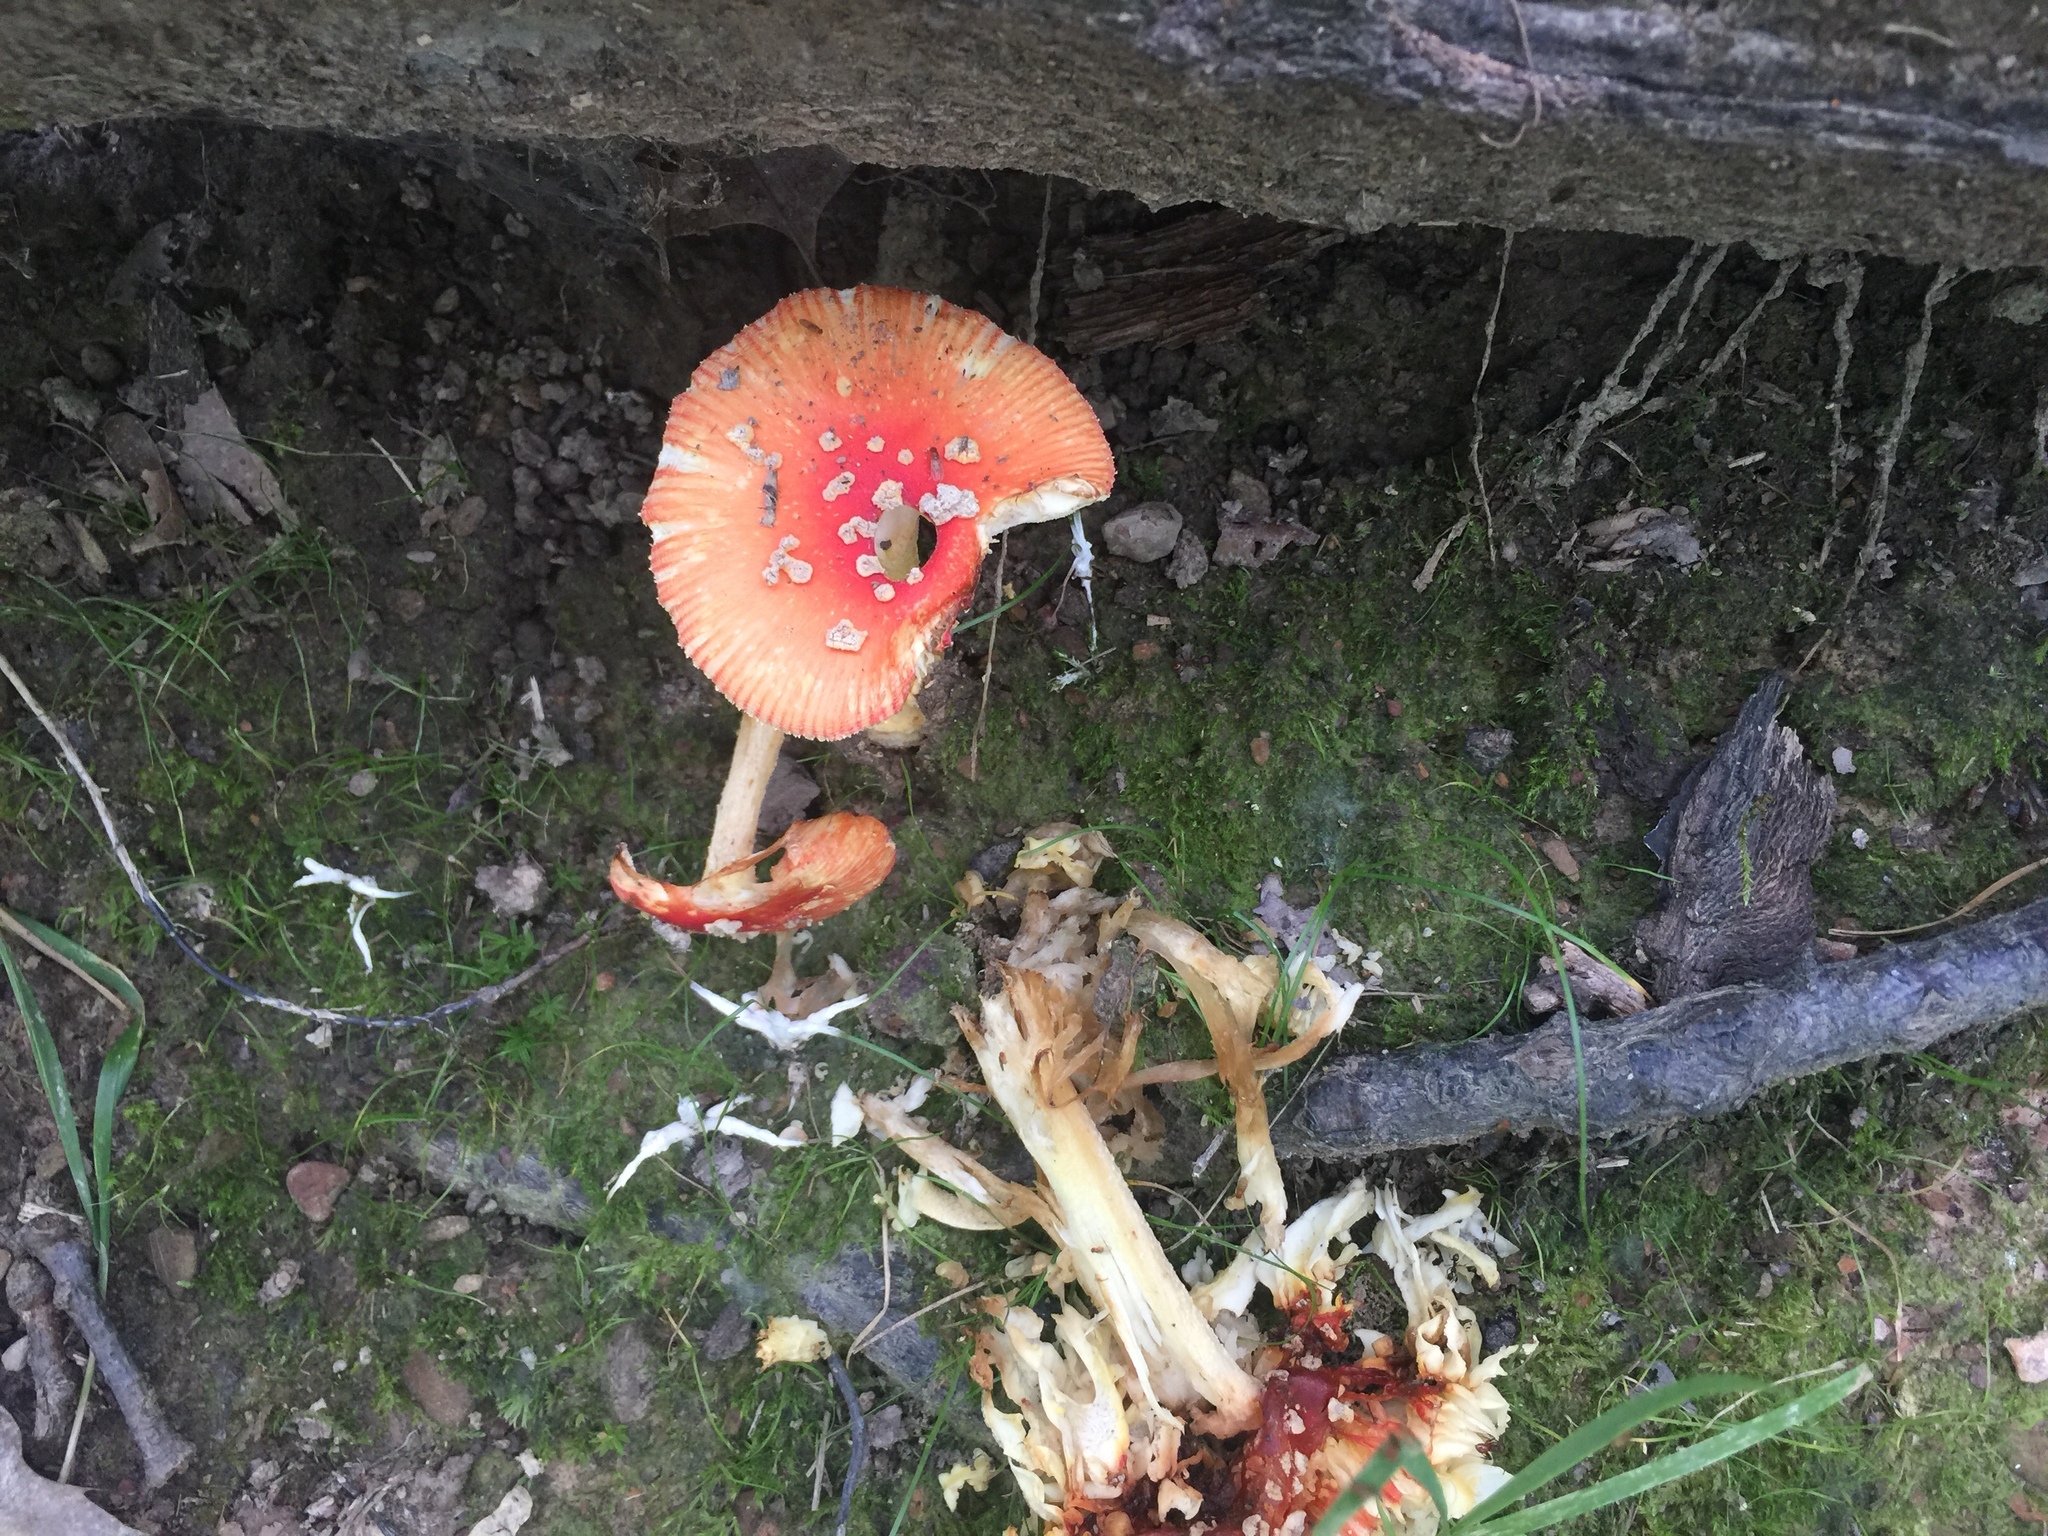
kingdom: Fungi
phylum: Basidiomycota
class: Agaricomycetes
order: Agaricales
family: Amanitaceae
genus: Amanita
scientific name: Amanita parcivolvata
